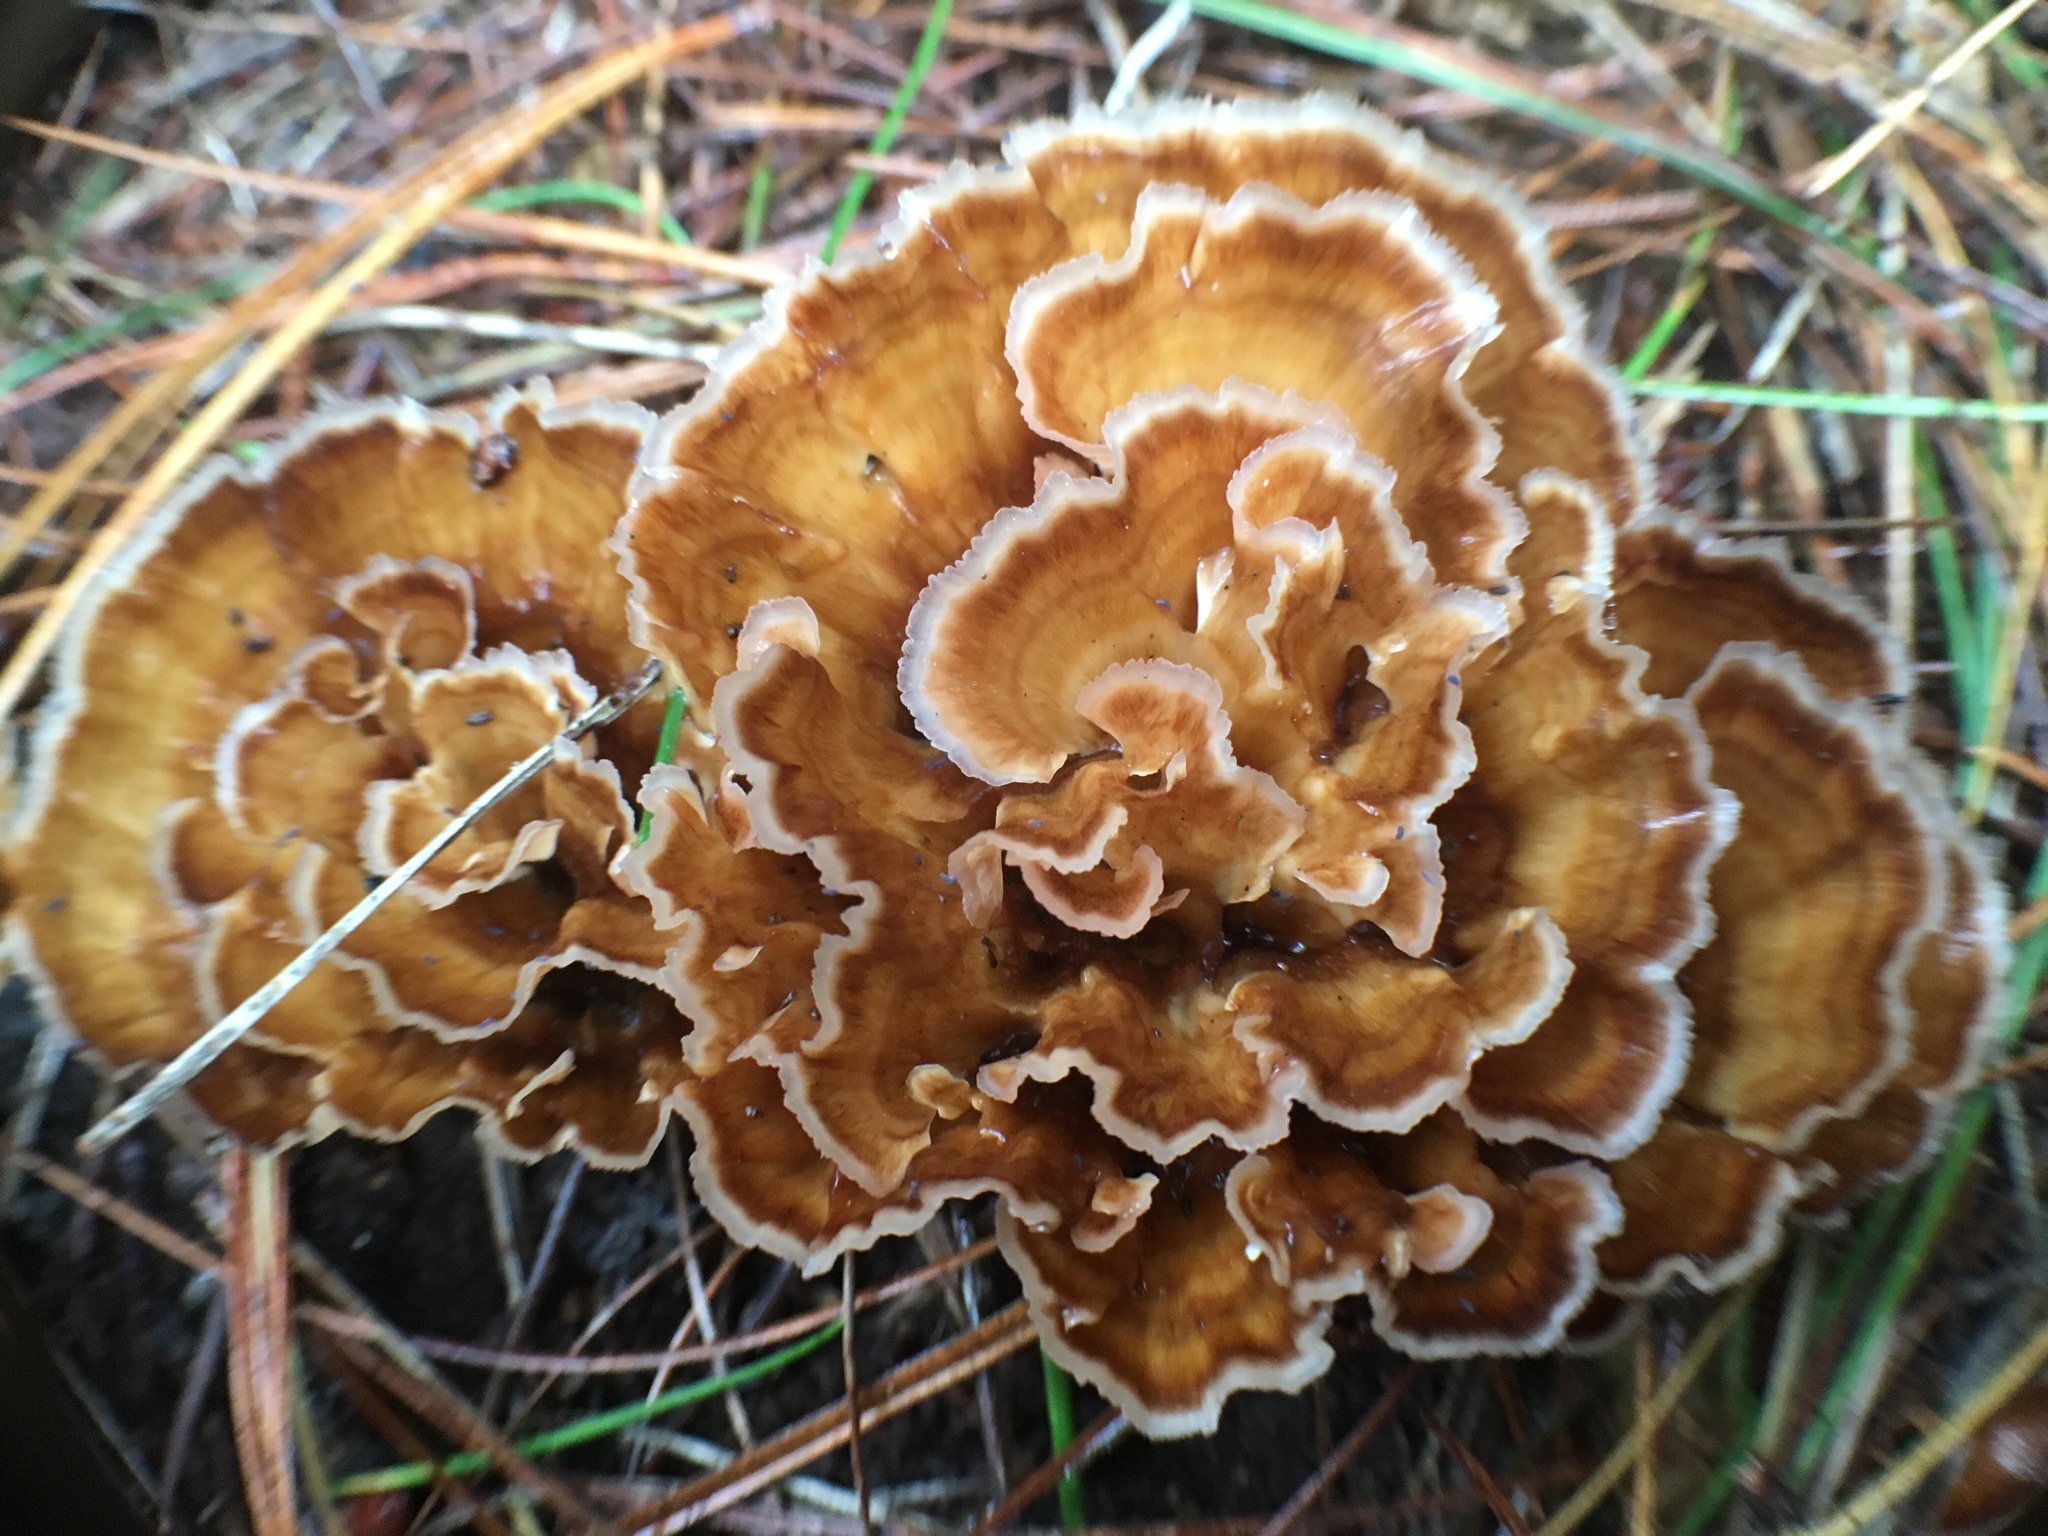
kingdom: Fungi
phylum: Basidiomycota
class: Agaricomycetes
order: Polyporales
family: Podoscyphaceae
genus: Podoscypha
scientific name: Podoscypha petalodes
